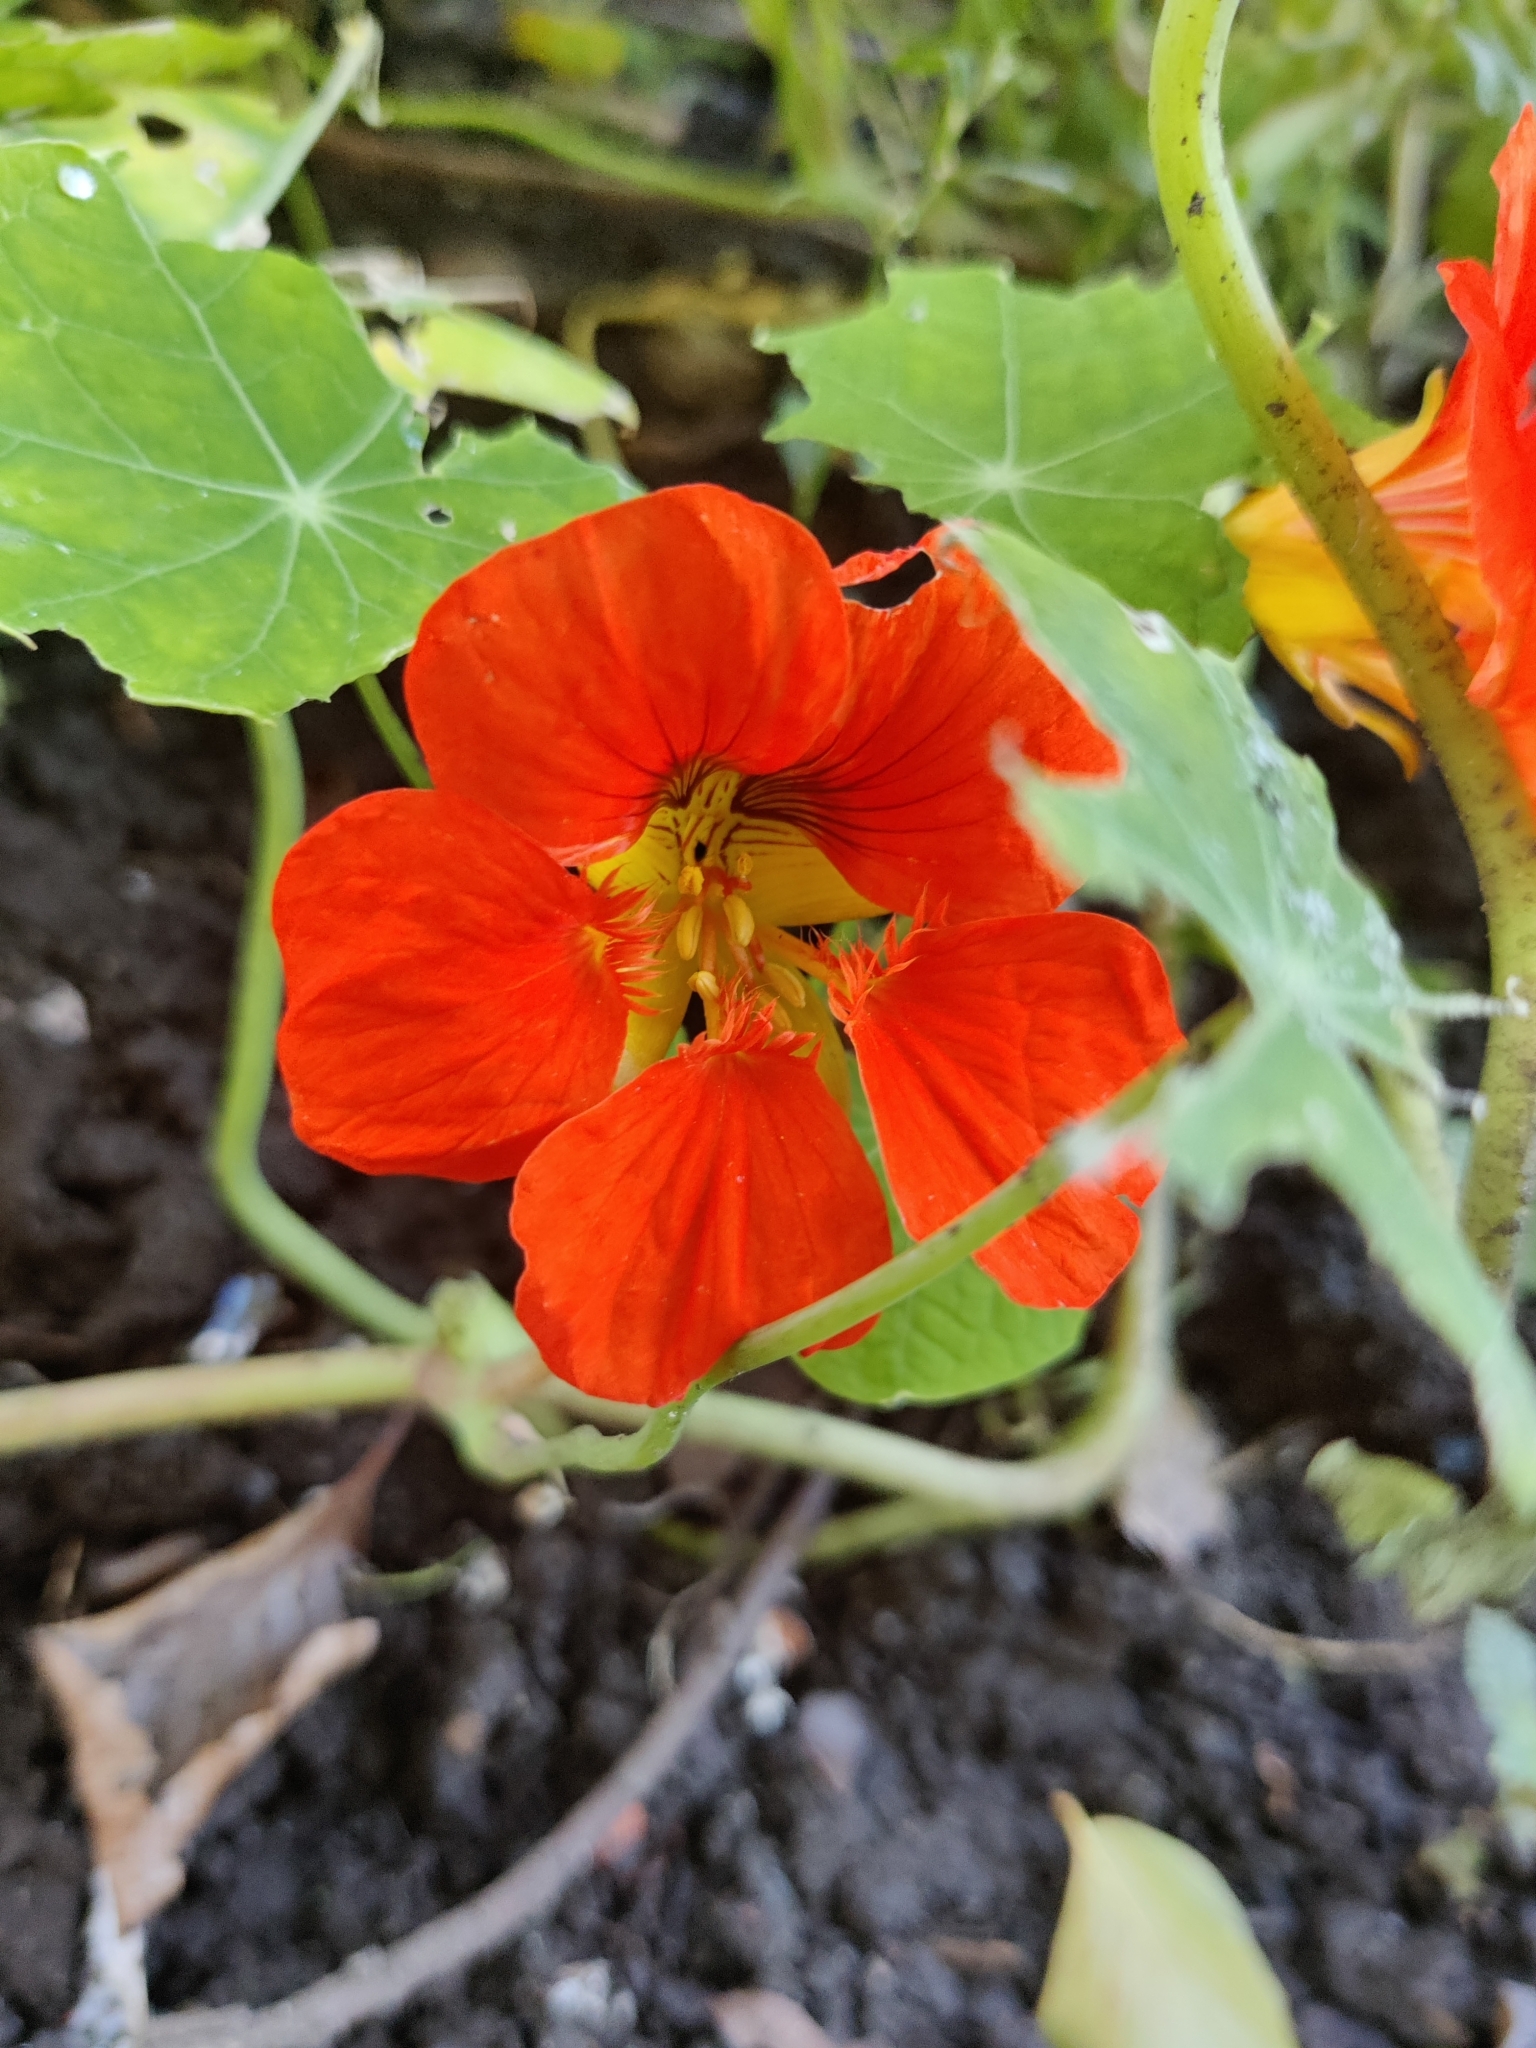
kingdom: Plantae
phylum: Tracheophyta
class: Magnoliopsida
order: Brassicales
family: Tropaeolaceae
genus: Tropaeolum
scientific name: Tropaeolum majus
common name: Nasturtium
